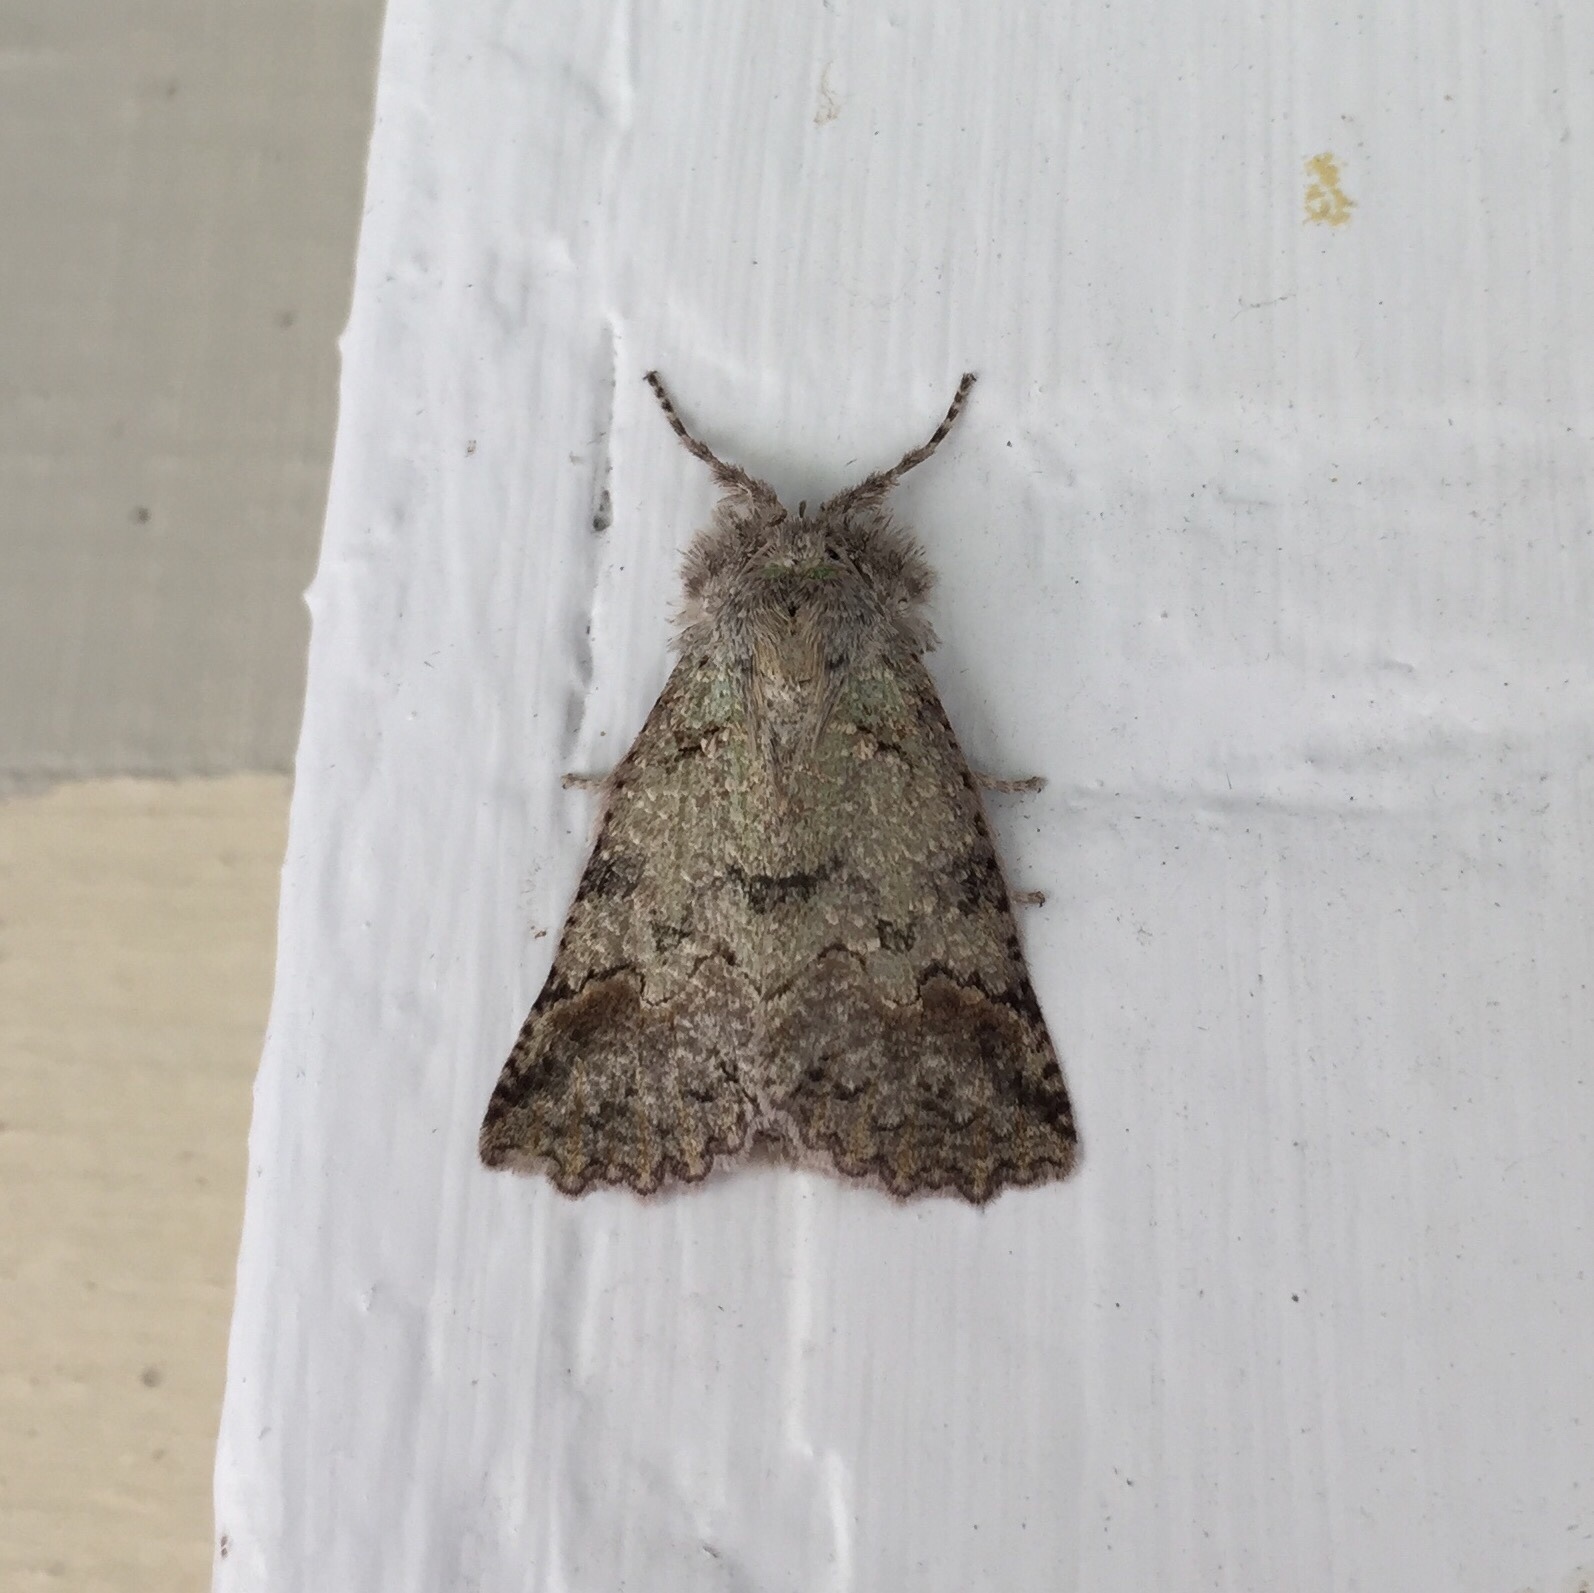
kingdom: Animalia
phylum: Arthropoda
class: Insecta
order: Lepidoptera
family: Geometridae
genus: Declana
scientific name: Declana floccosa
